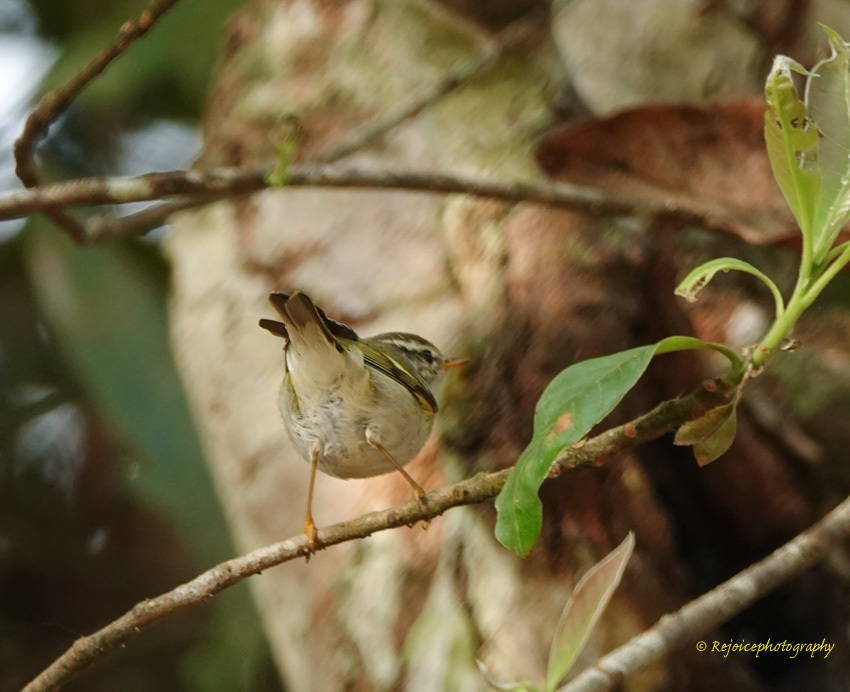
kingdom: Animalia
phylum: Chordata
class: Aves
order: Passeriformes
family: Phylloscopidae
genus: Phylloscopus
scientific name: Phylloscopus inornatus
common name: Yellow-browed warbler
